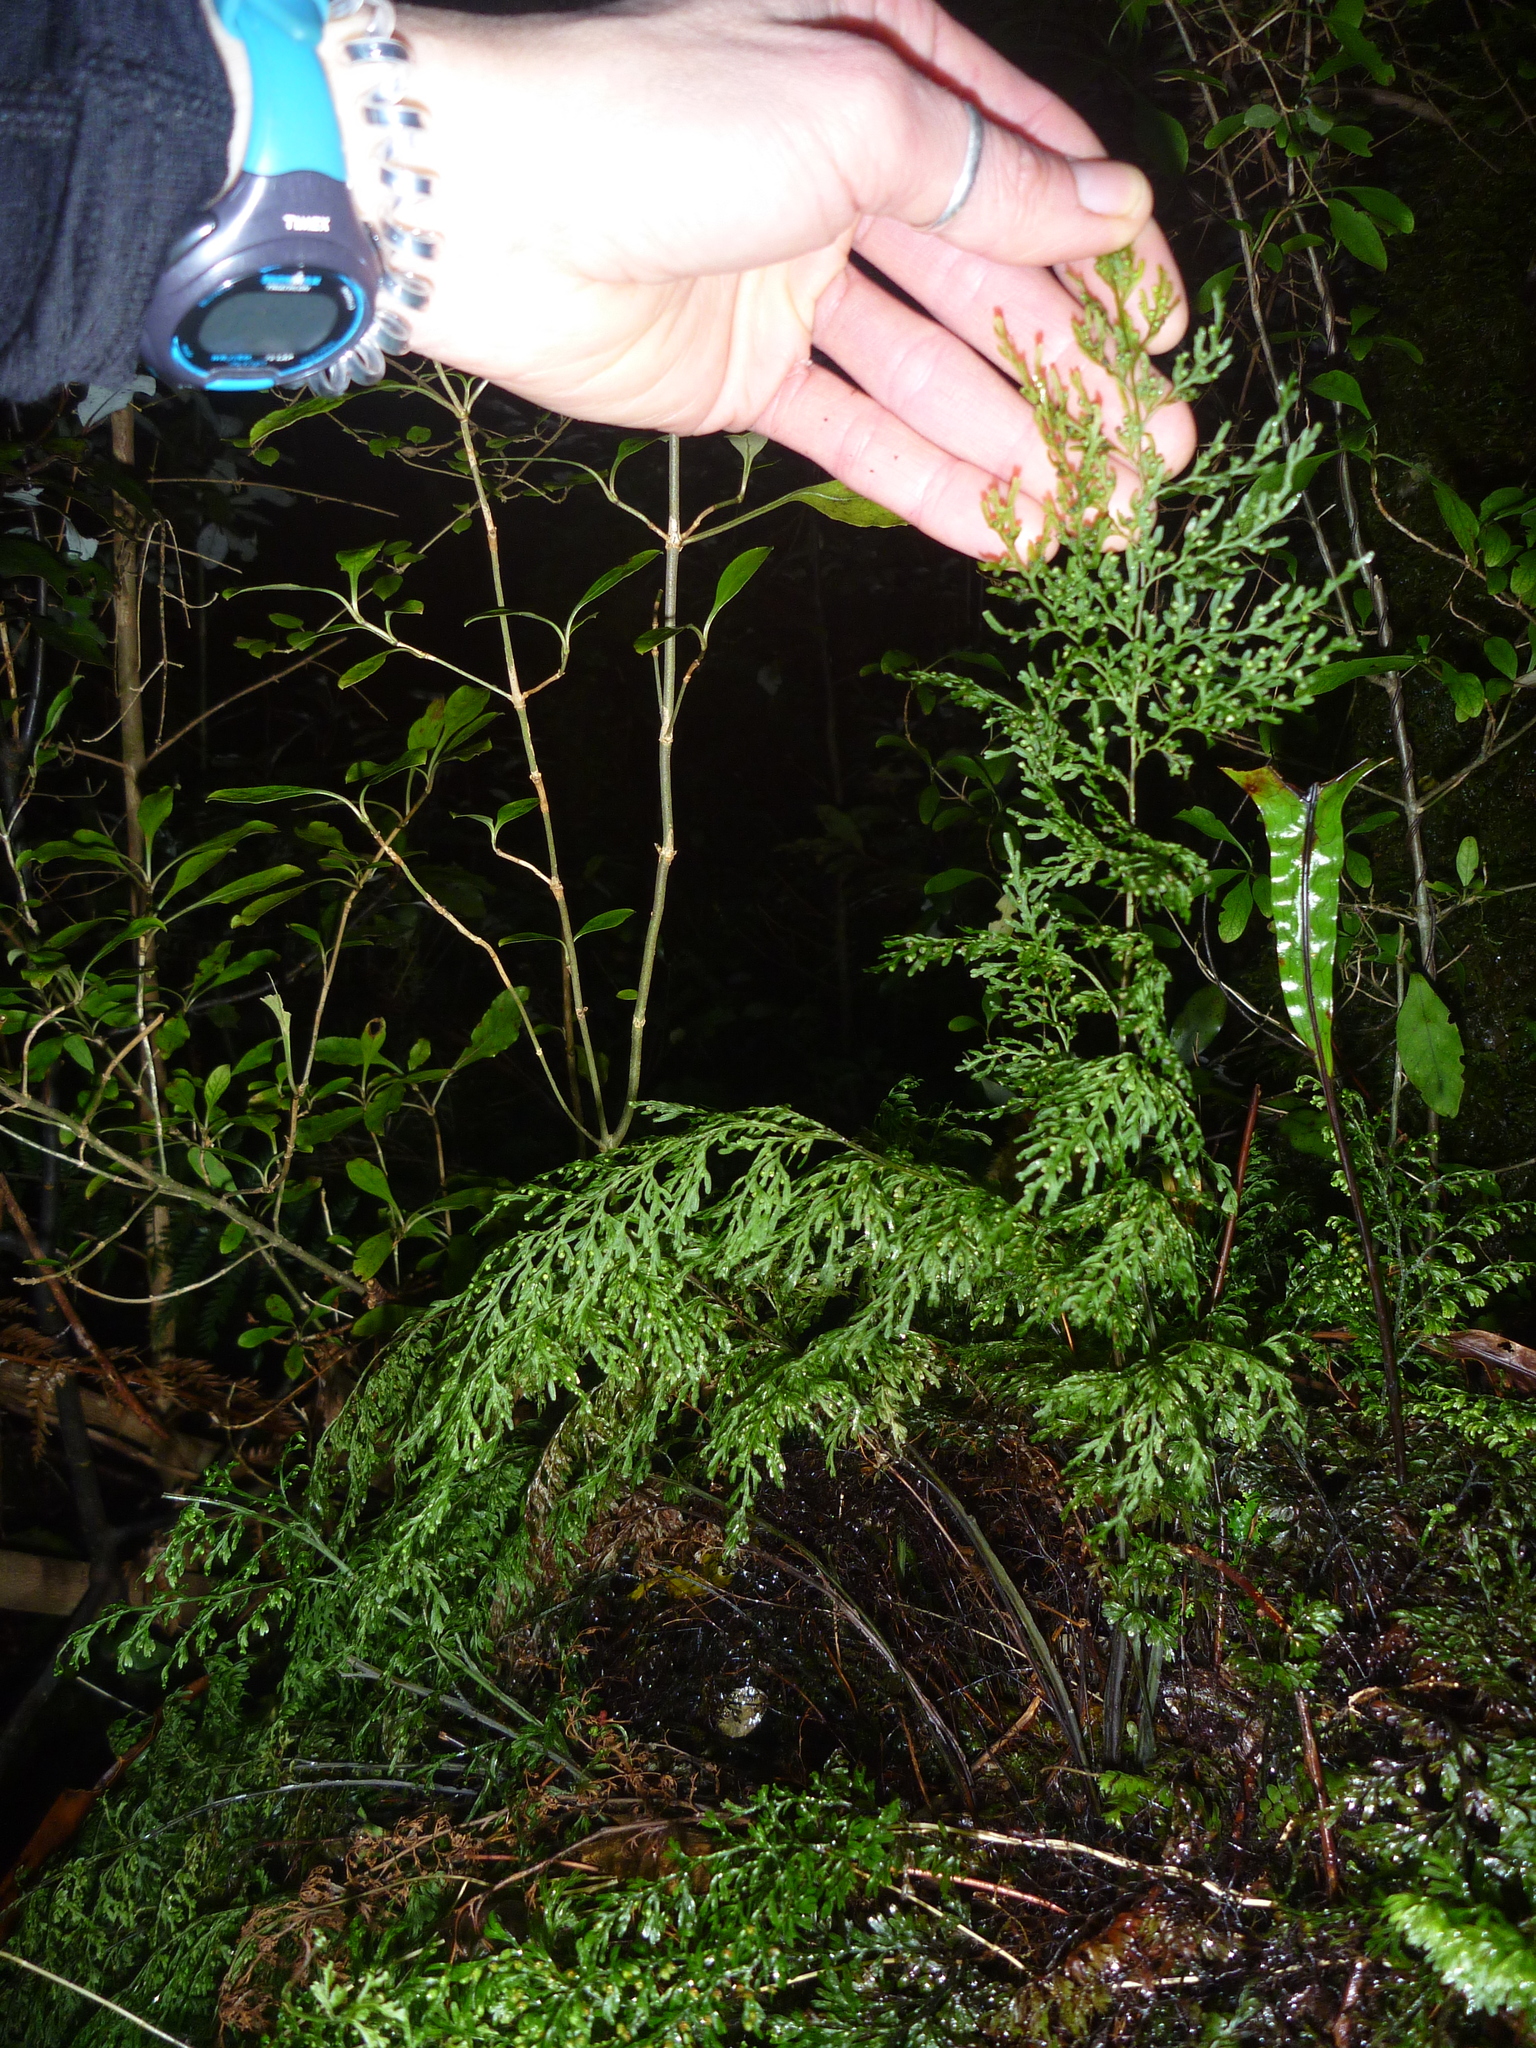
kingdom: Plantae
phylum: Tracheophyta
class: Polypodiopsida
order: Hymenophyllales
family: Hymenophyllaceae
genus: Hymenophyllum
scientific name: Hymenophyllum pulcherrimum
